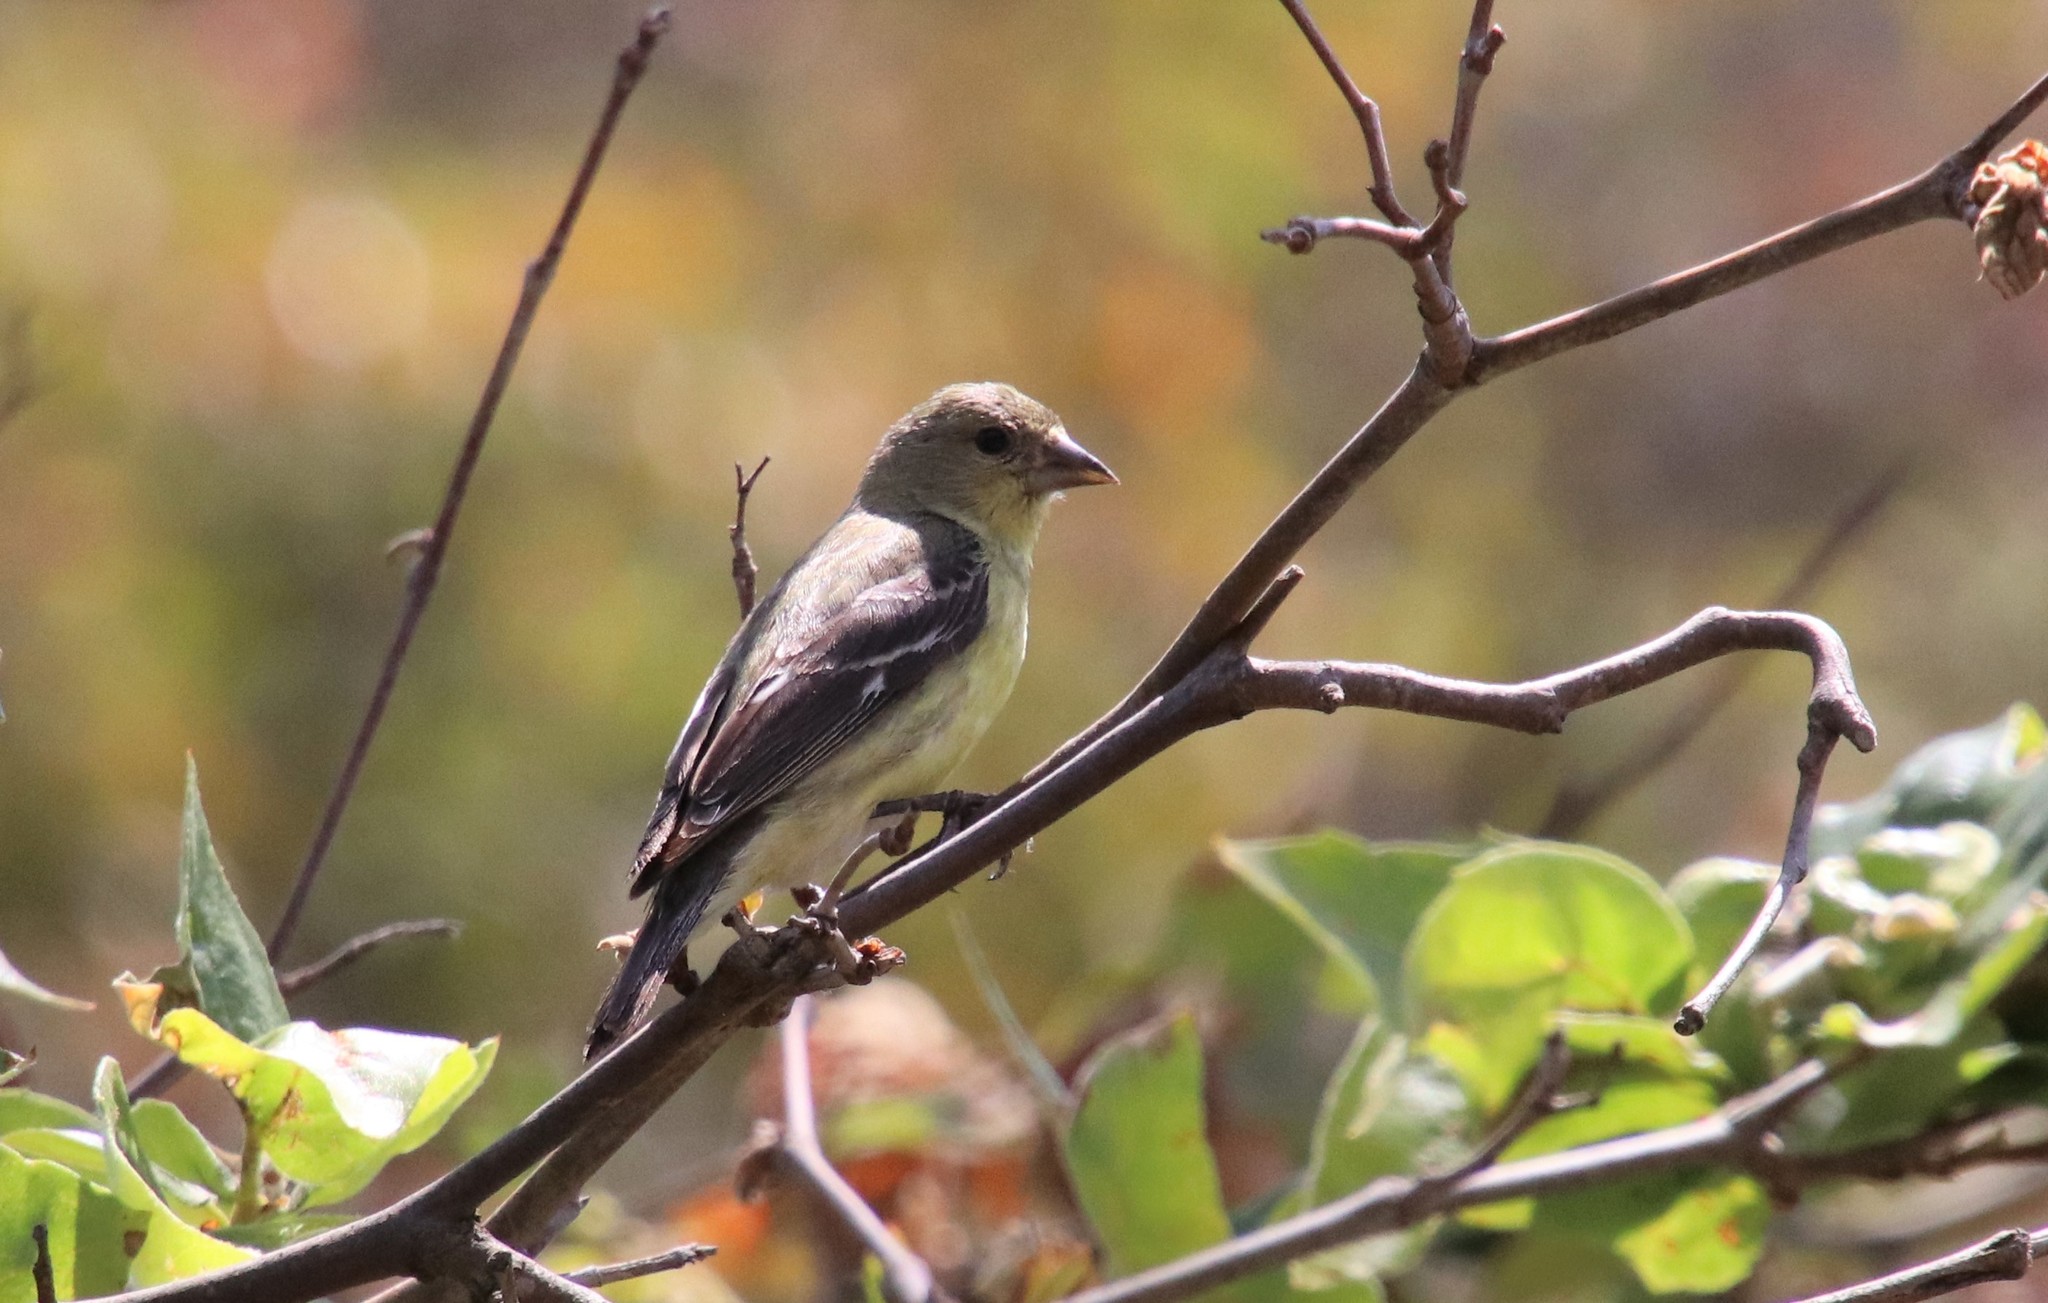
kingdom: Animalia
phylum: Chordata
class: Aves
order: Passeriformes
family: Fringillidae
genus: Spinus
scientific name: Spinus psaltria
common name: Lesser goldfinch
